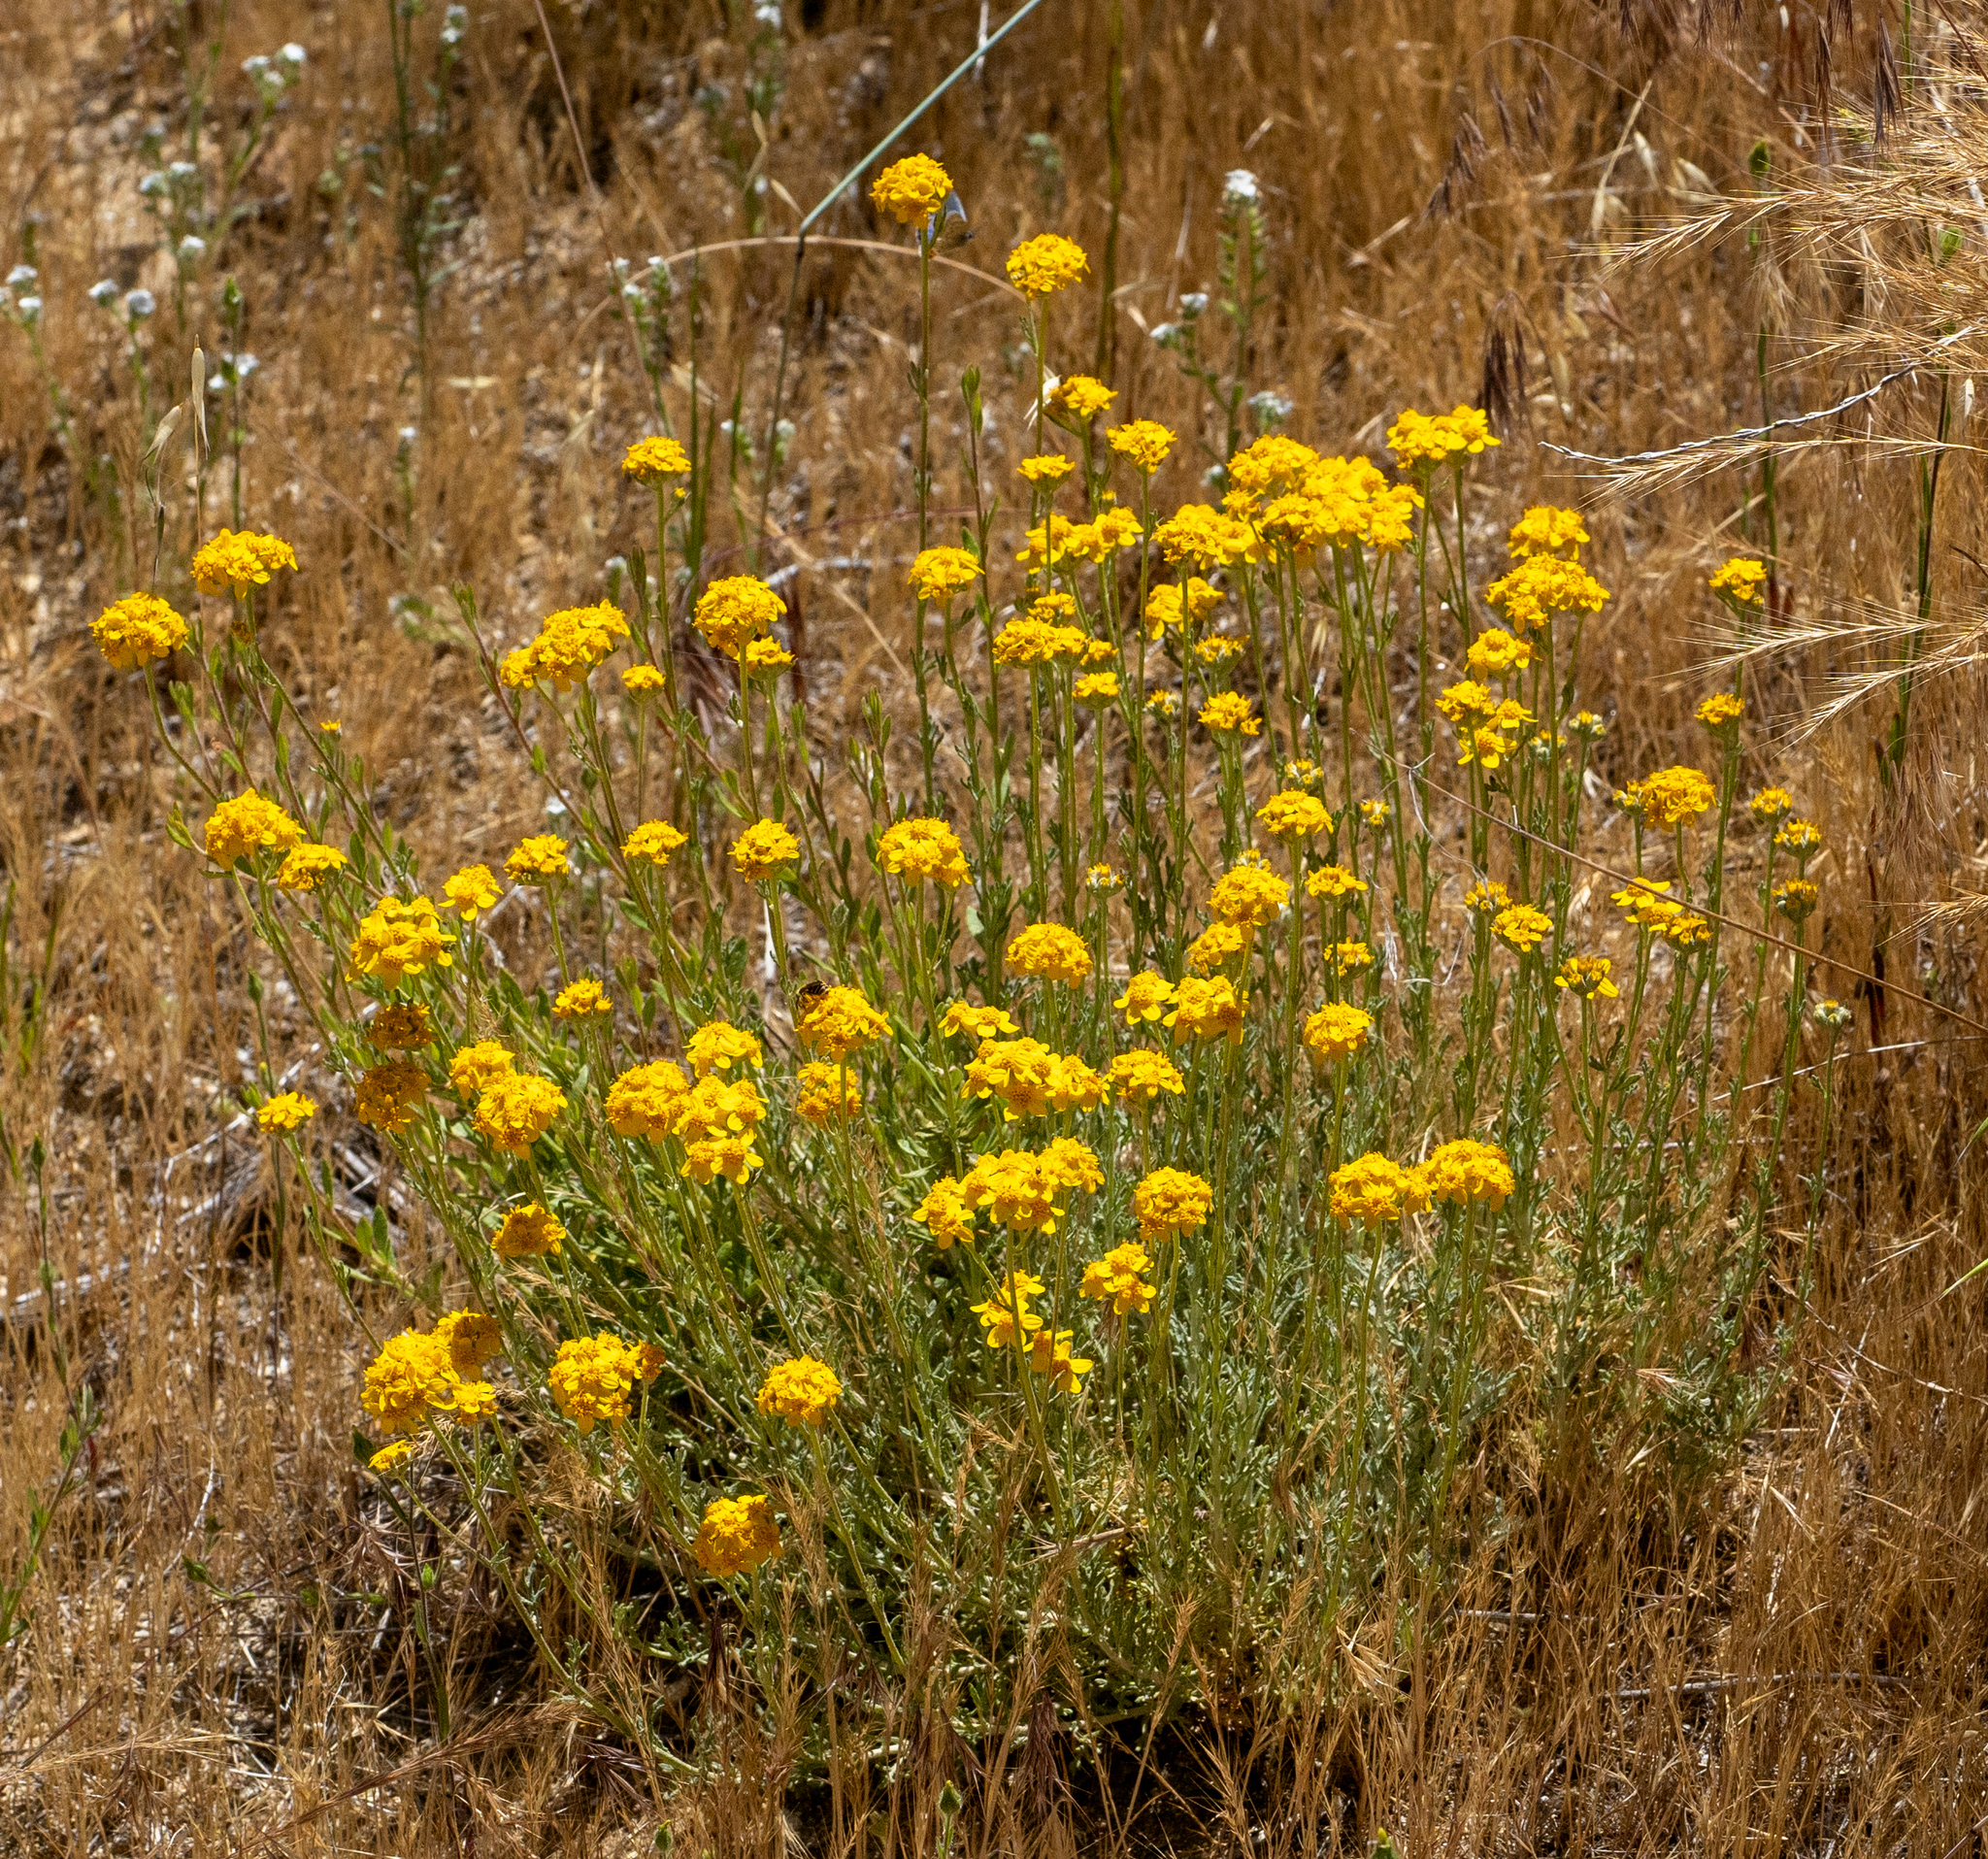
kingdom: Plantae
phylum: Tracheophyta
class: Magnoliopsida
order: Asterales
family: Asteraceae
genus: Eriophyllum
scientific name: Eriophyllum confertiflorum
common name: Golden-yarrow
